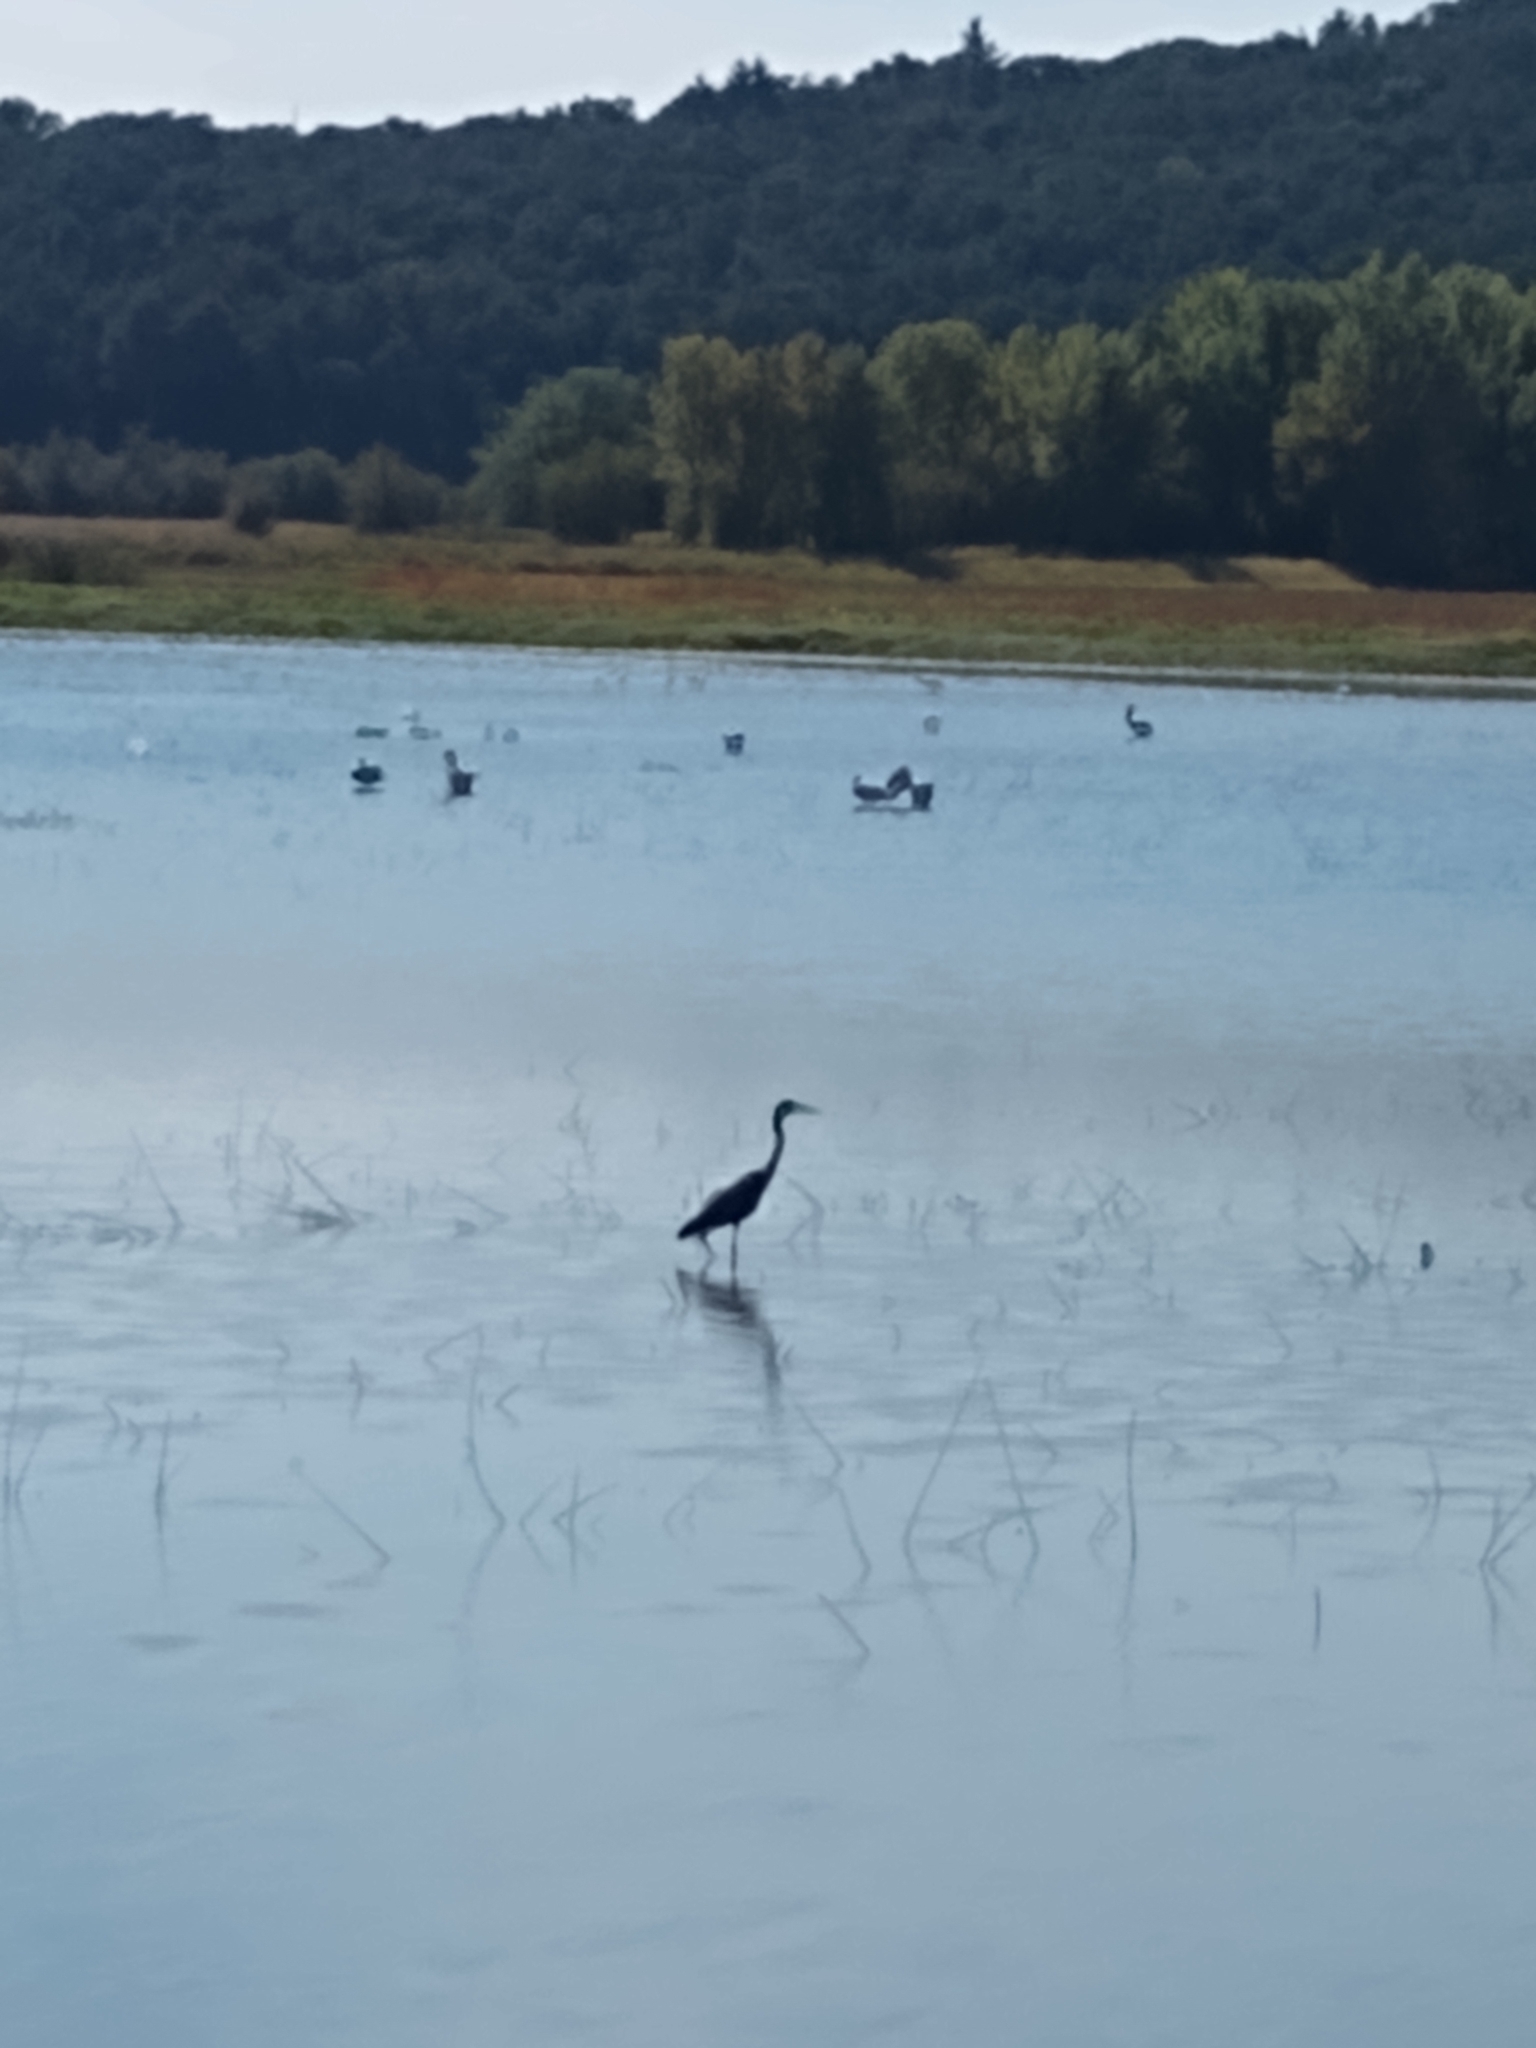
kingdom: Animalia
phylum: Chordata
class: Aves
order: Pelecaniformes
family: Ardeidae
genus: Ardea
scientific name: Ardea herodias
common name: Great blue heron
